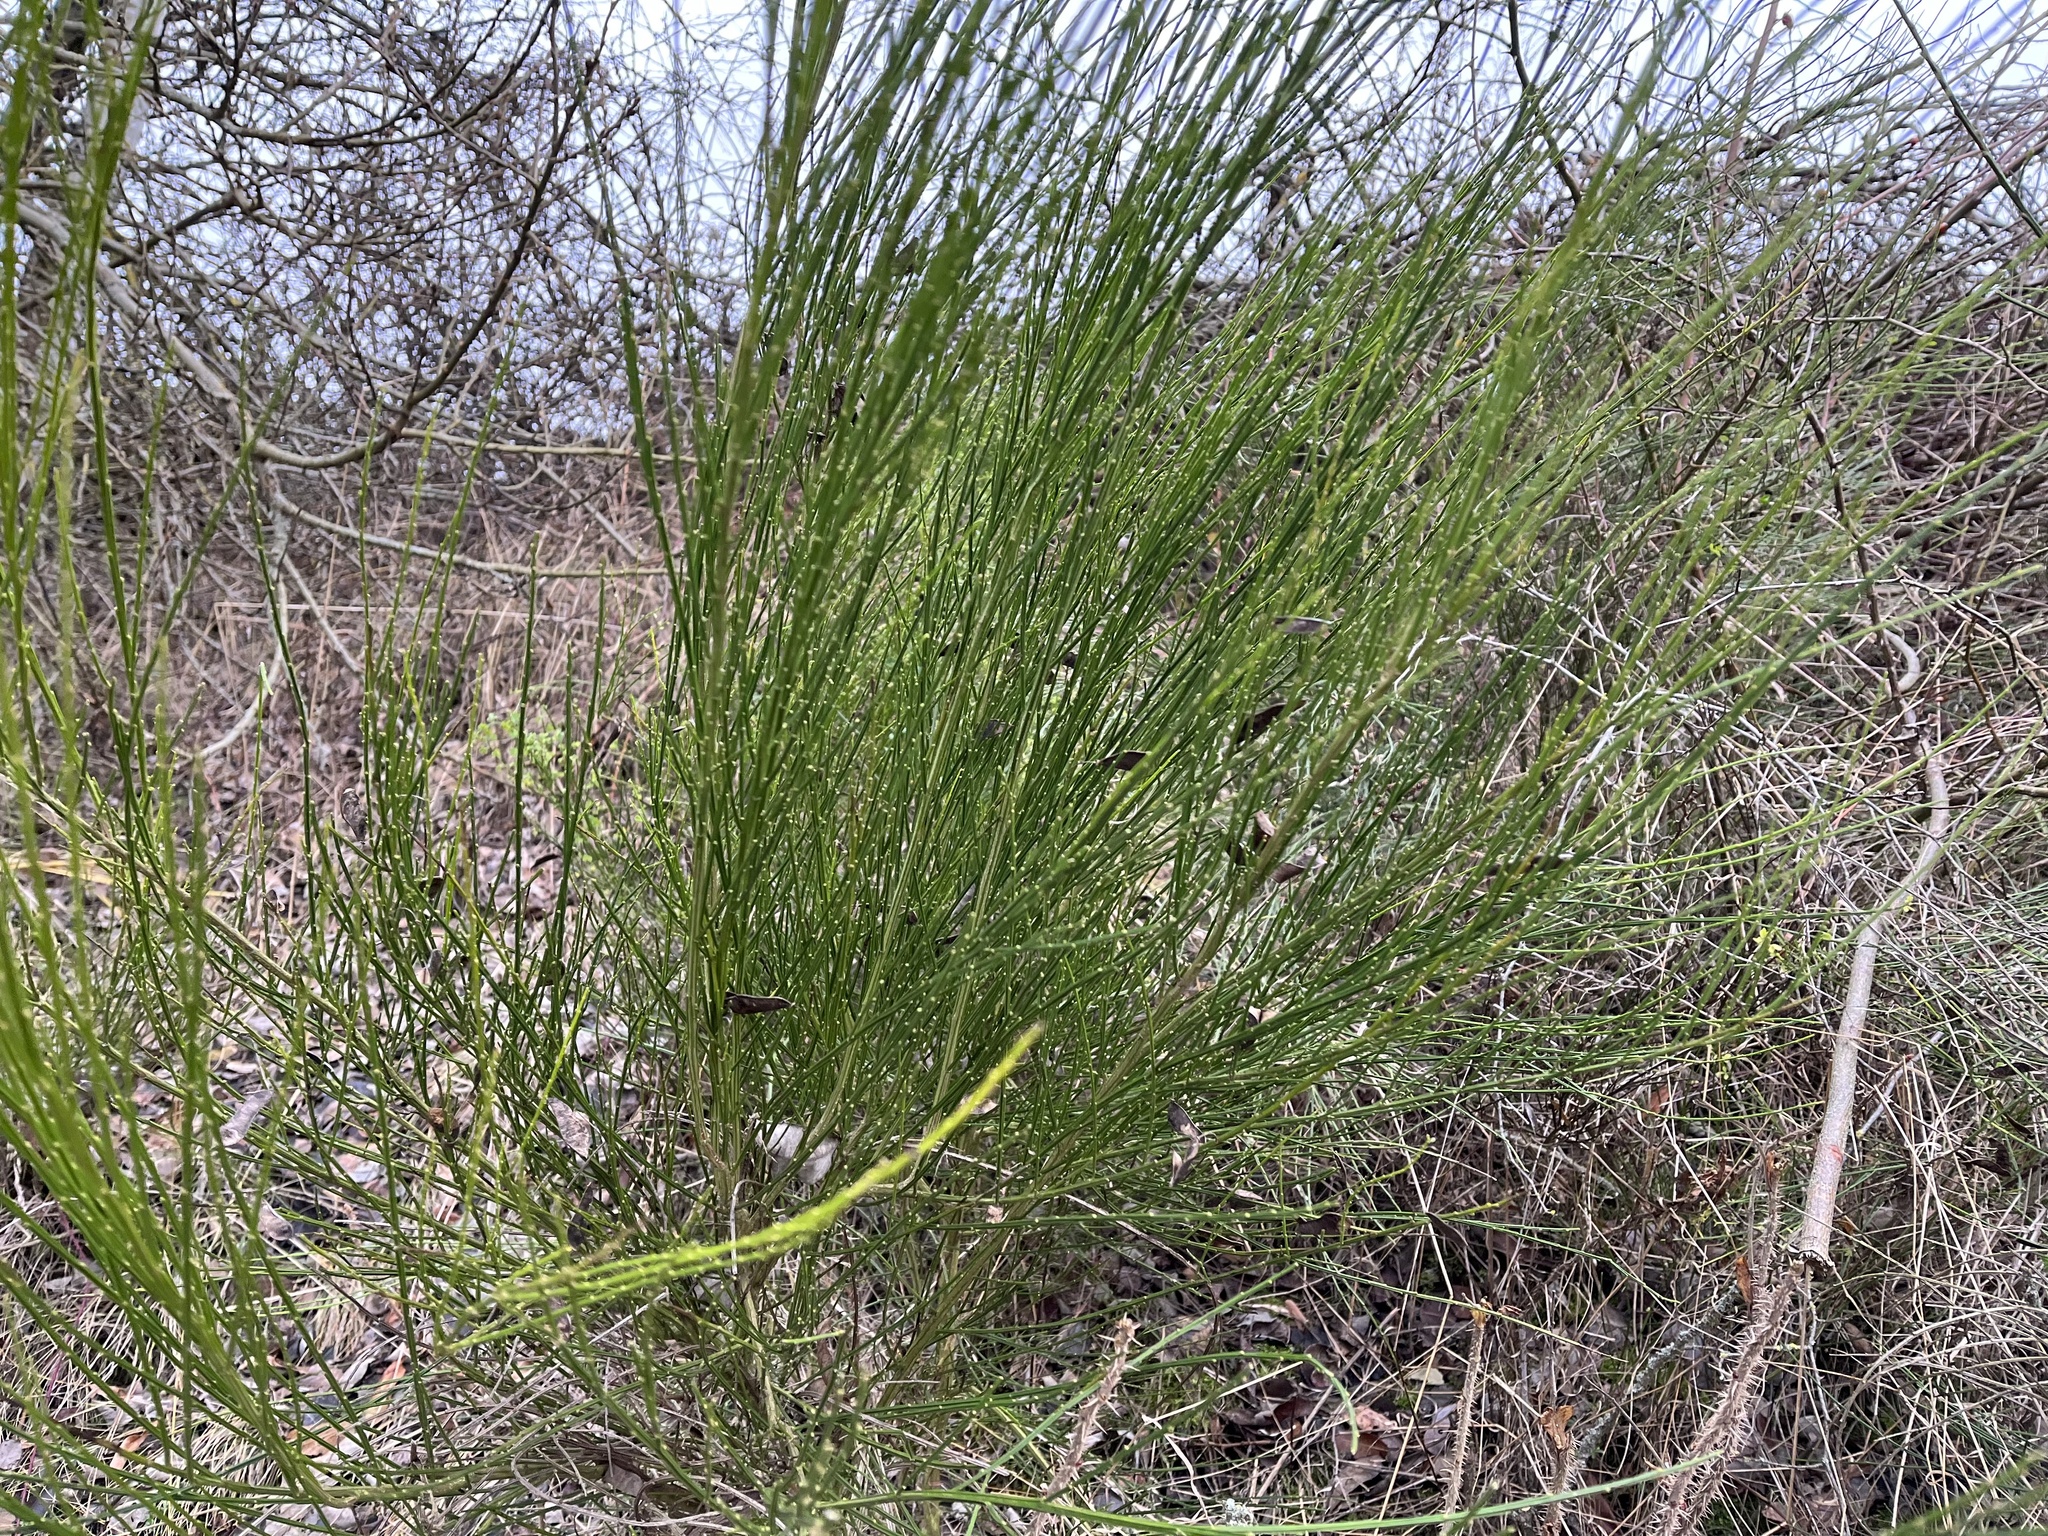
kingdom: Plantae
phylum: Tracheophyta
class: Magnoliopsida
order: Fabales
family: Fabaceae
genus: Cytisus
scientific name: Cytisus scoparius
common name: Scotch broom
